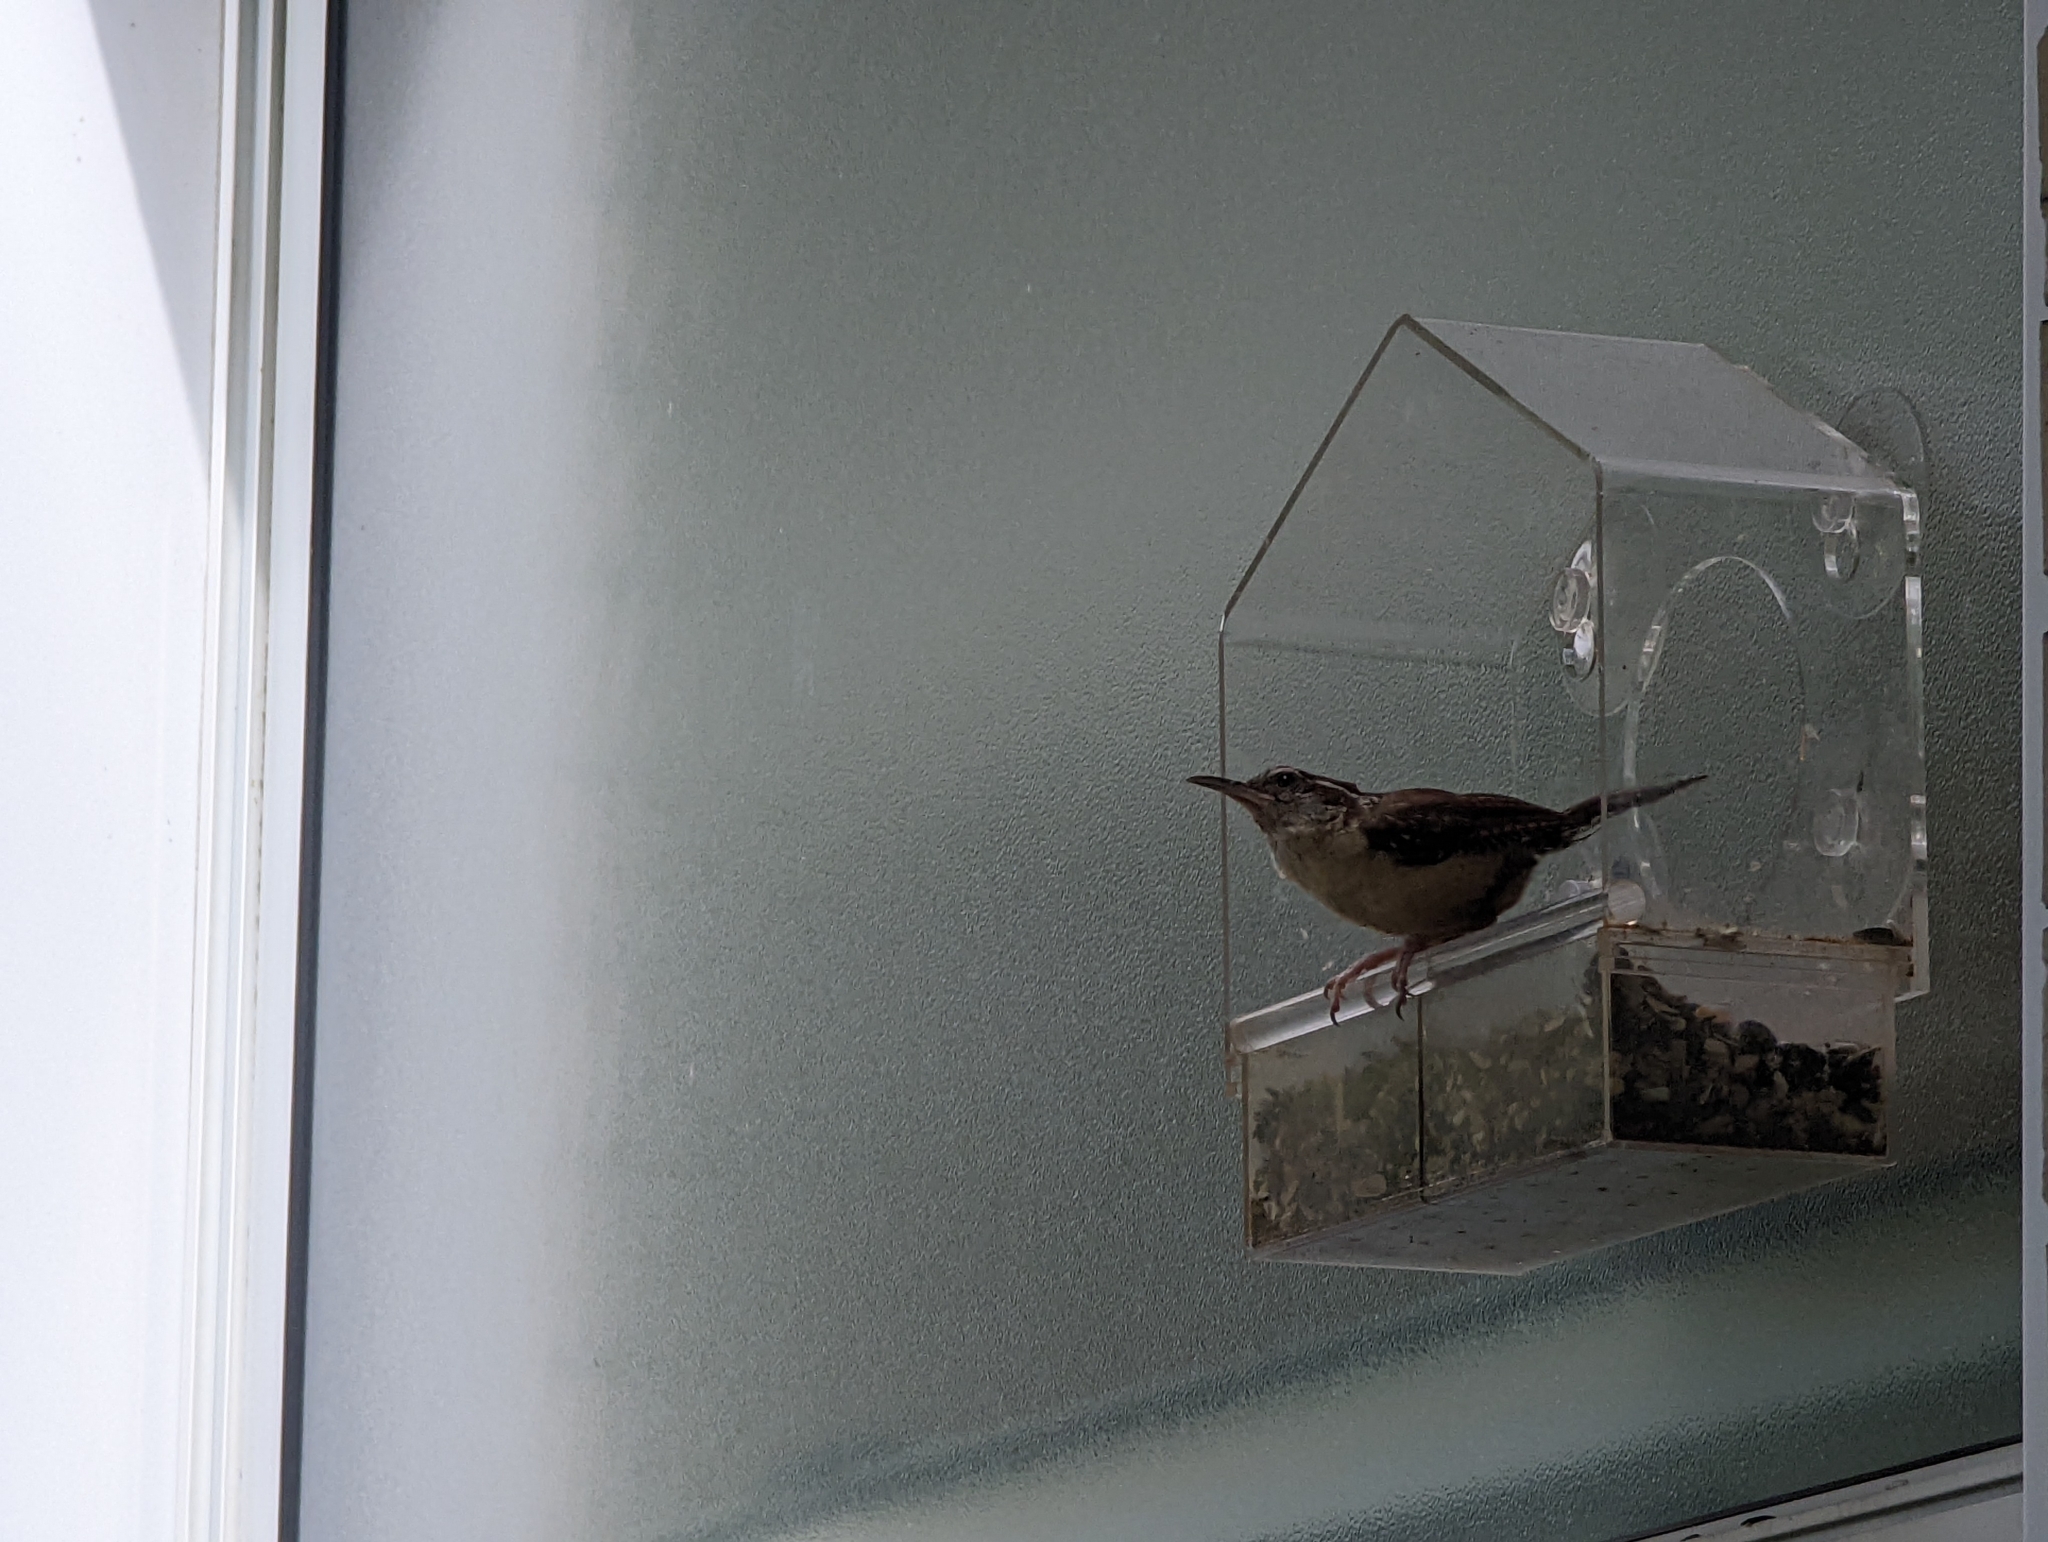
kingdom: Animalia
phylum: Chordata
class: Aves
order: Passeriformes
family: Troglodytidae
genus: Thryothorus
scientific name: Thryothorus ludovicianus
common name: Carolina wren
